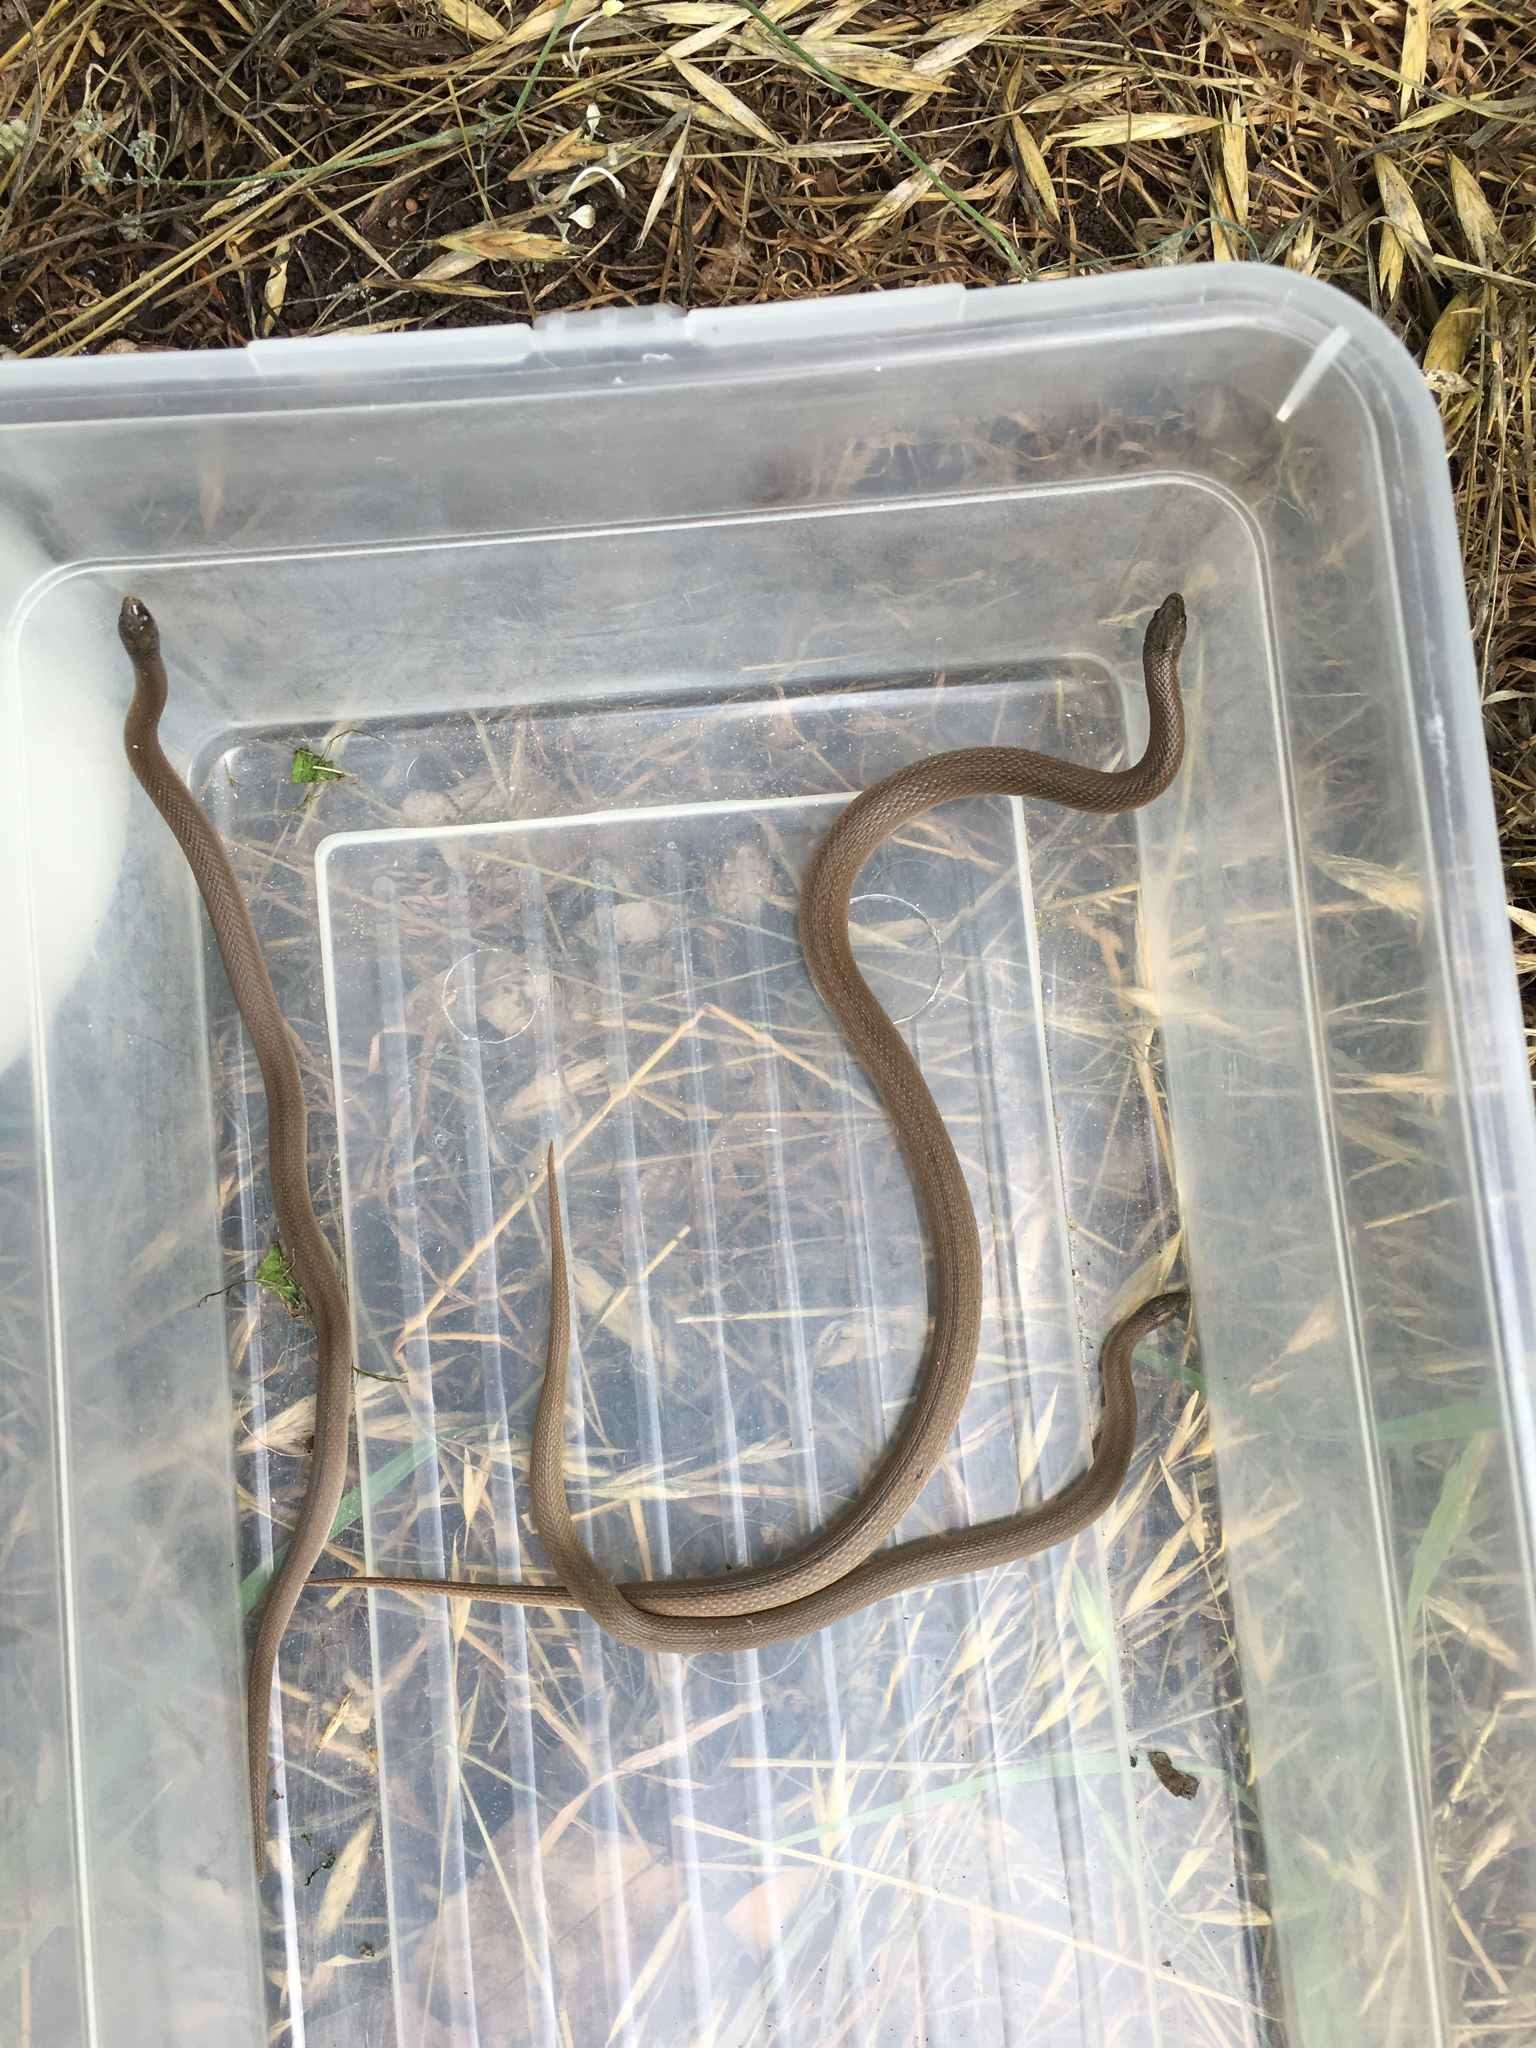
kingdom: Animalia
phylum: Chordata
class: Squamata
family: Colubridae
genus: Haldea
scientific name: Haldea striatula
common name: Rough earth snake
